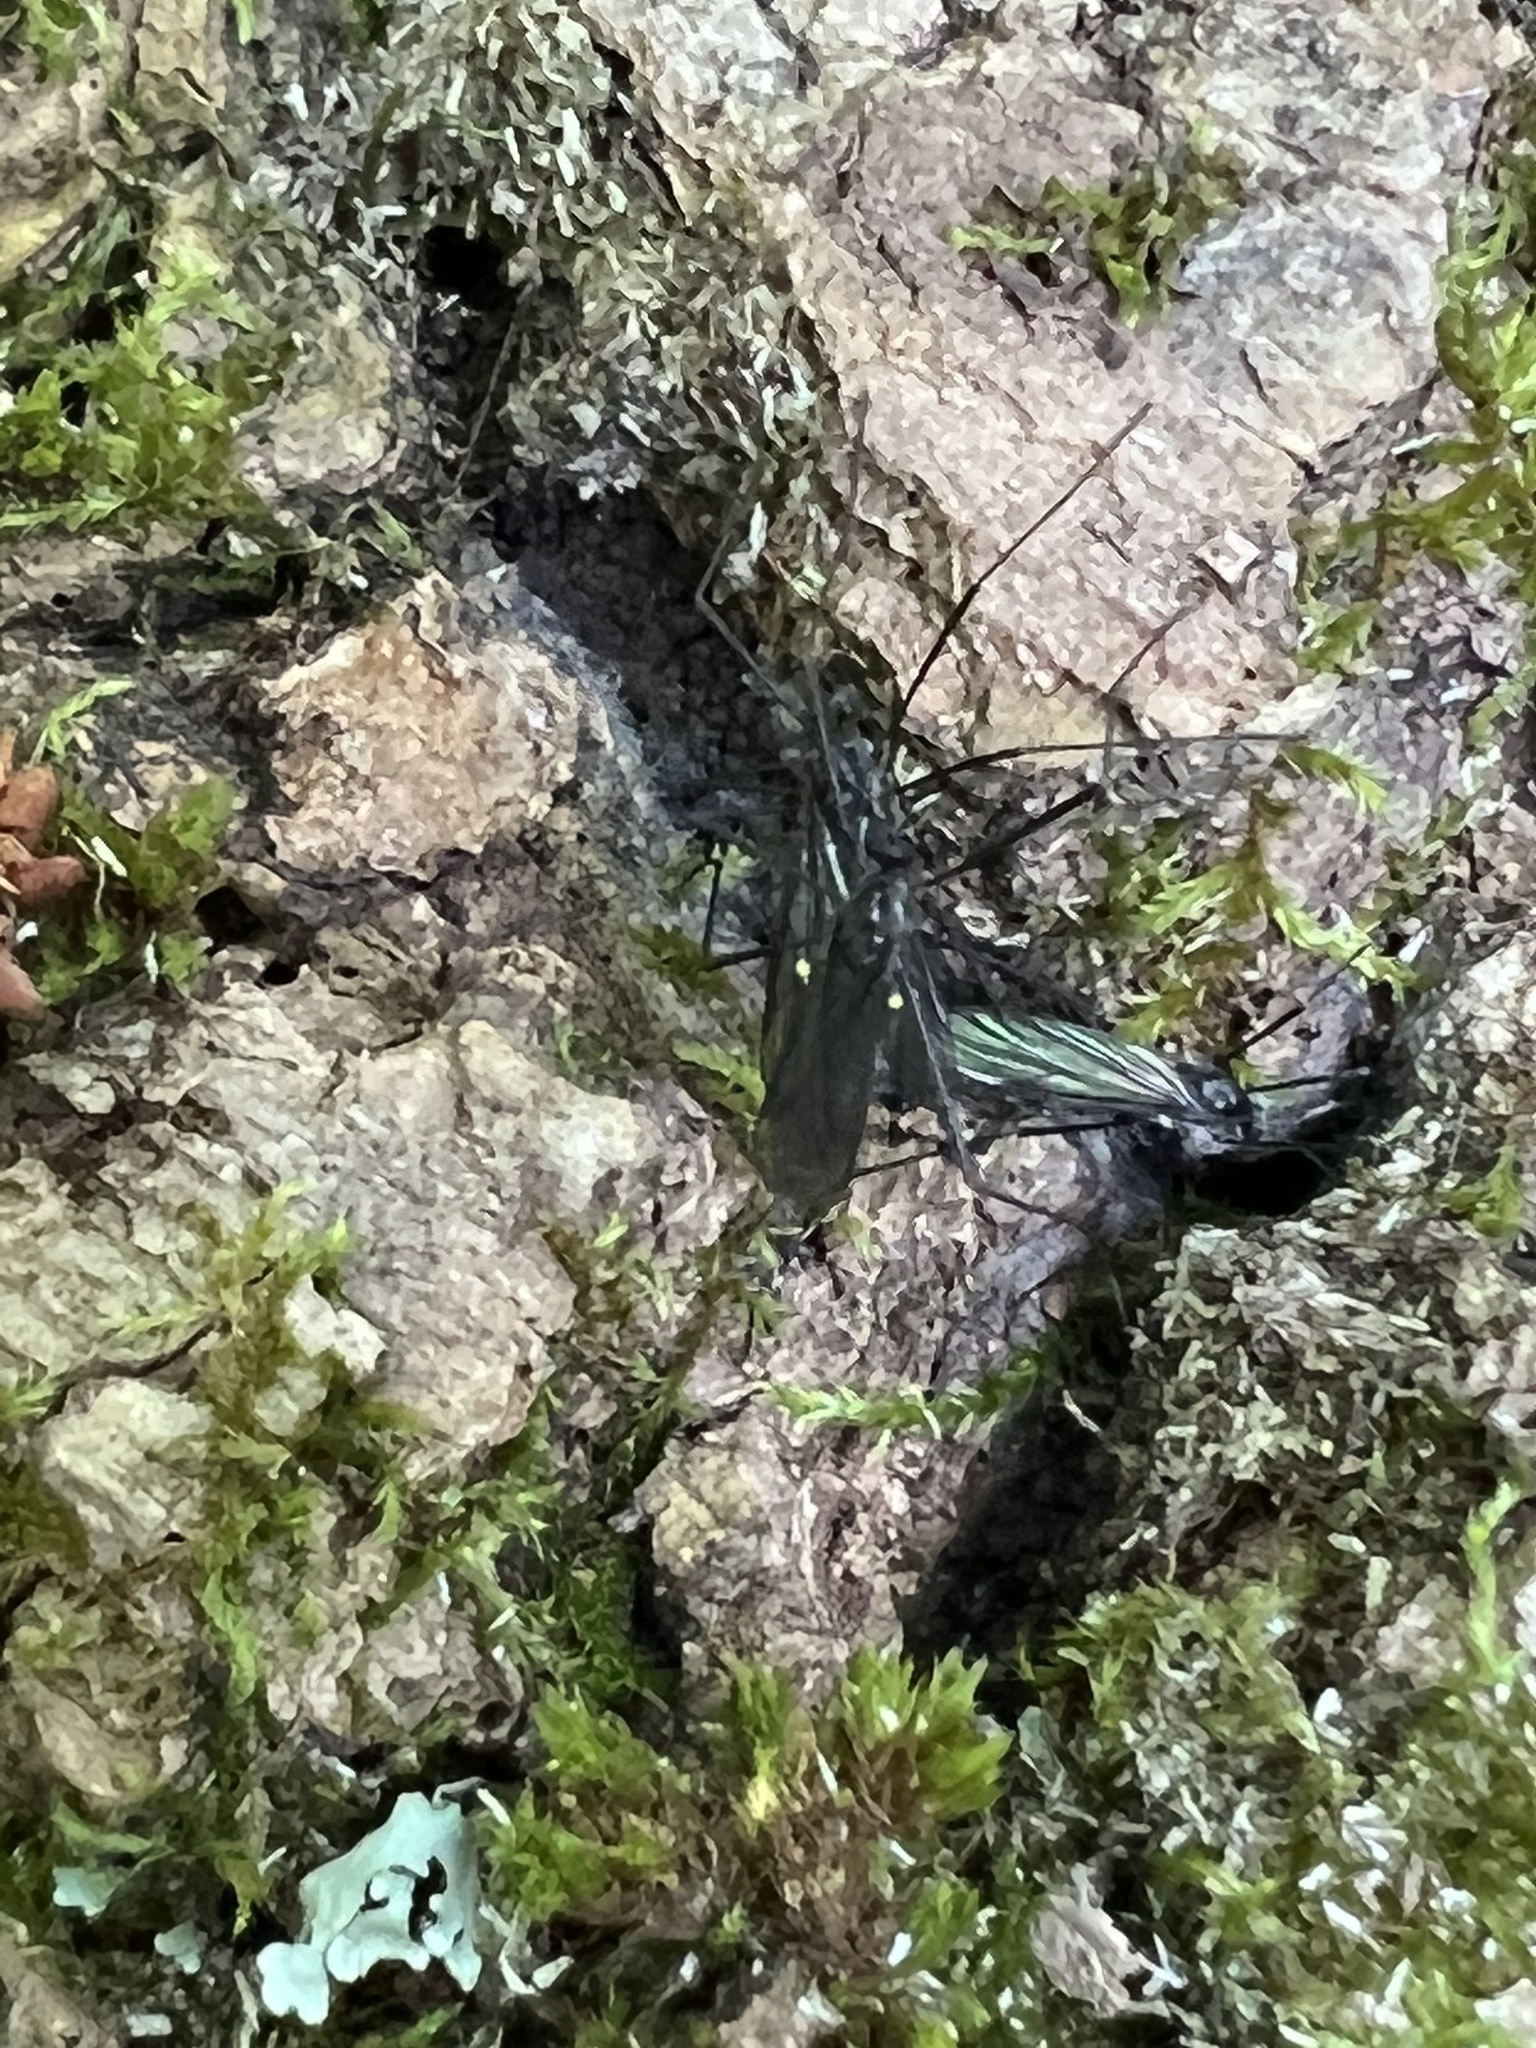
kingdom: Animalia
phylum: Arthropoda
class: Insecta
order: Diptera
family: Limoniidae
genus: Gnophomyia
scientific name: Gnophomyia tristissima
